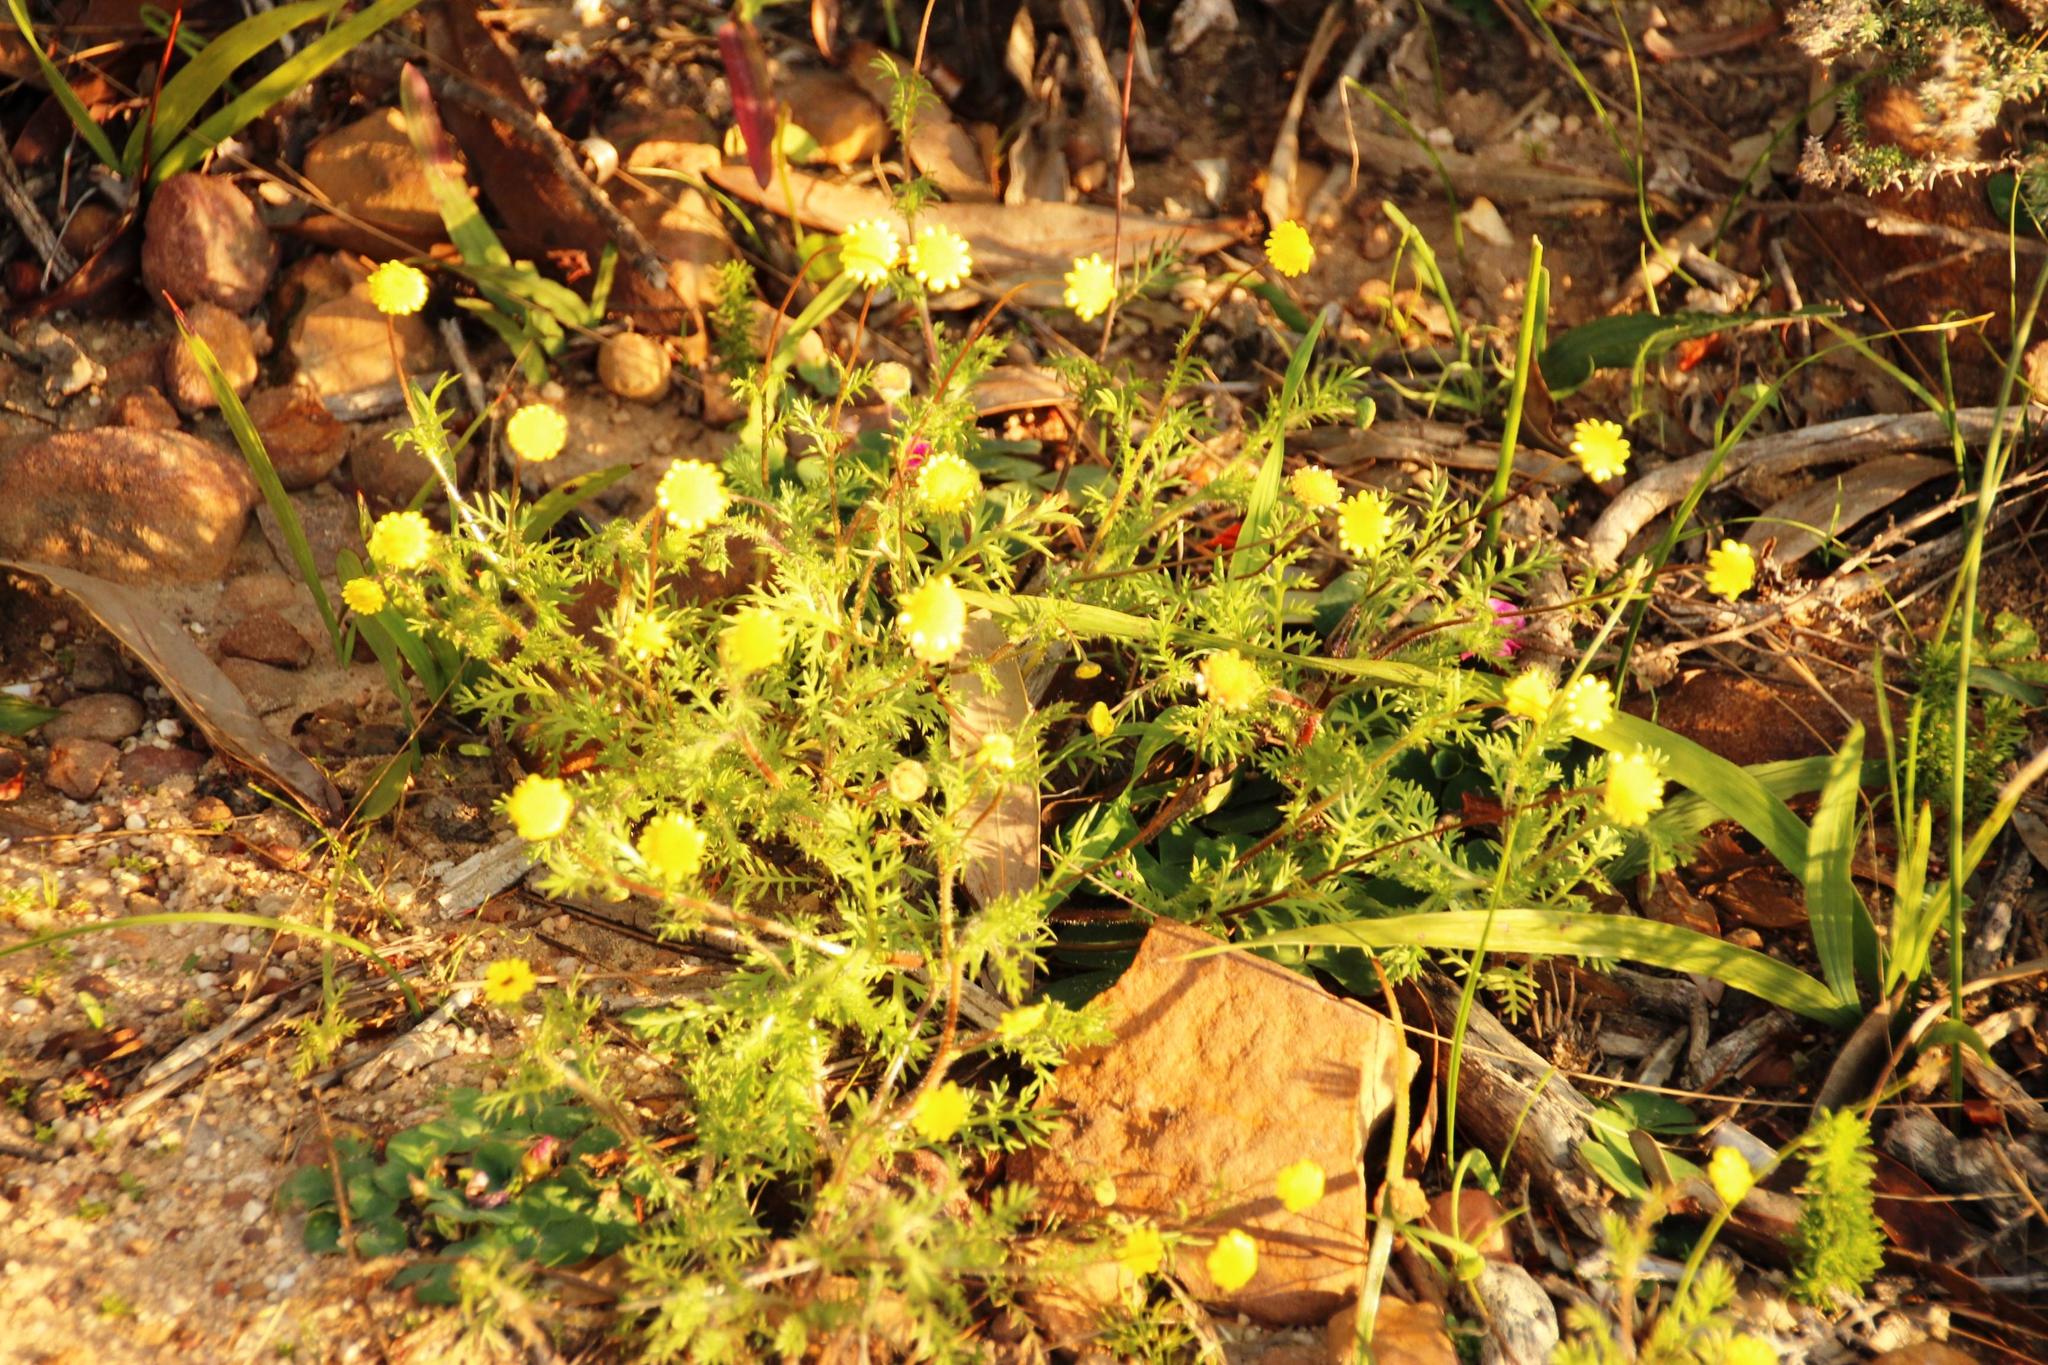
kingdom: Plantae
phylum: Tracheophyta
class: Magnoliopsida
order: Asterales
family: Asteraceae
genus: Cotula
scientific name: Cotula pruinosa
